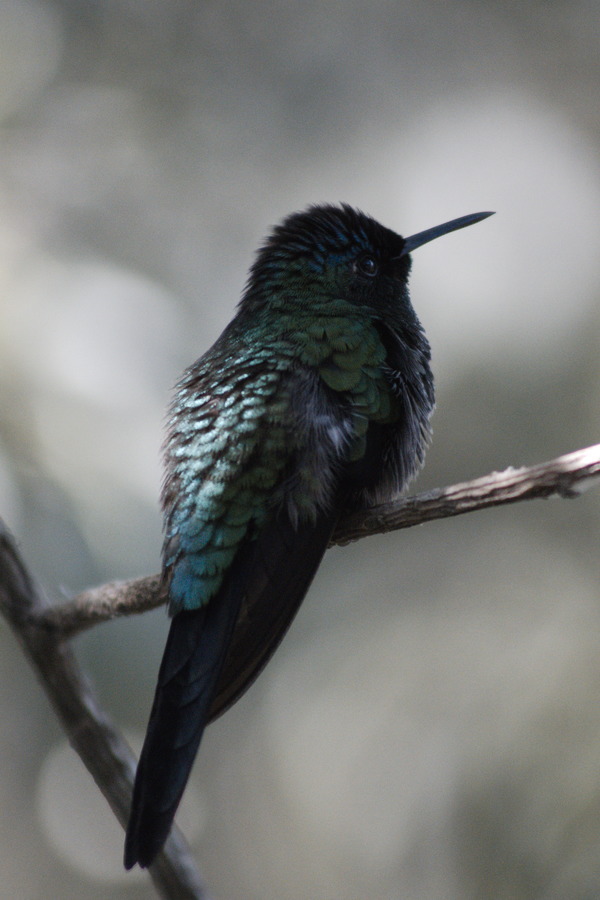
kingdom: Animalia
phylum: Chordata
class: Aves
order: Apodiformes
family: Trochilidae
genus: Thalurania
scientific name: Thalurania glaucopis
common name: Violet-capped woodnymph
